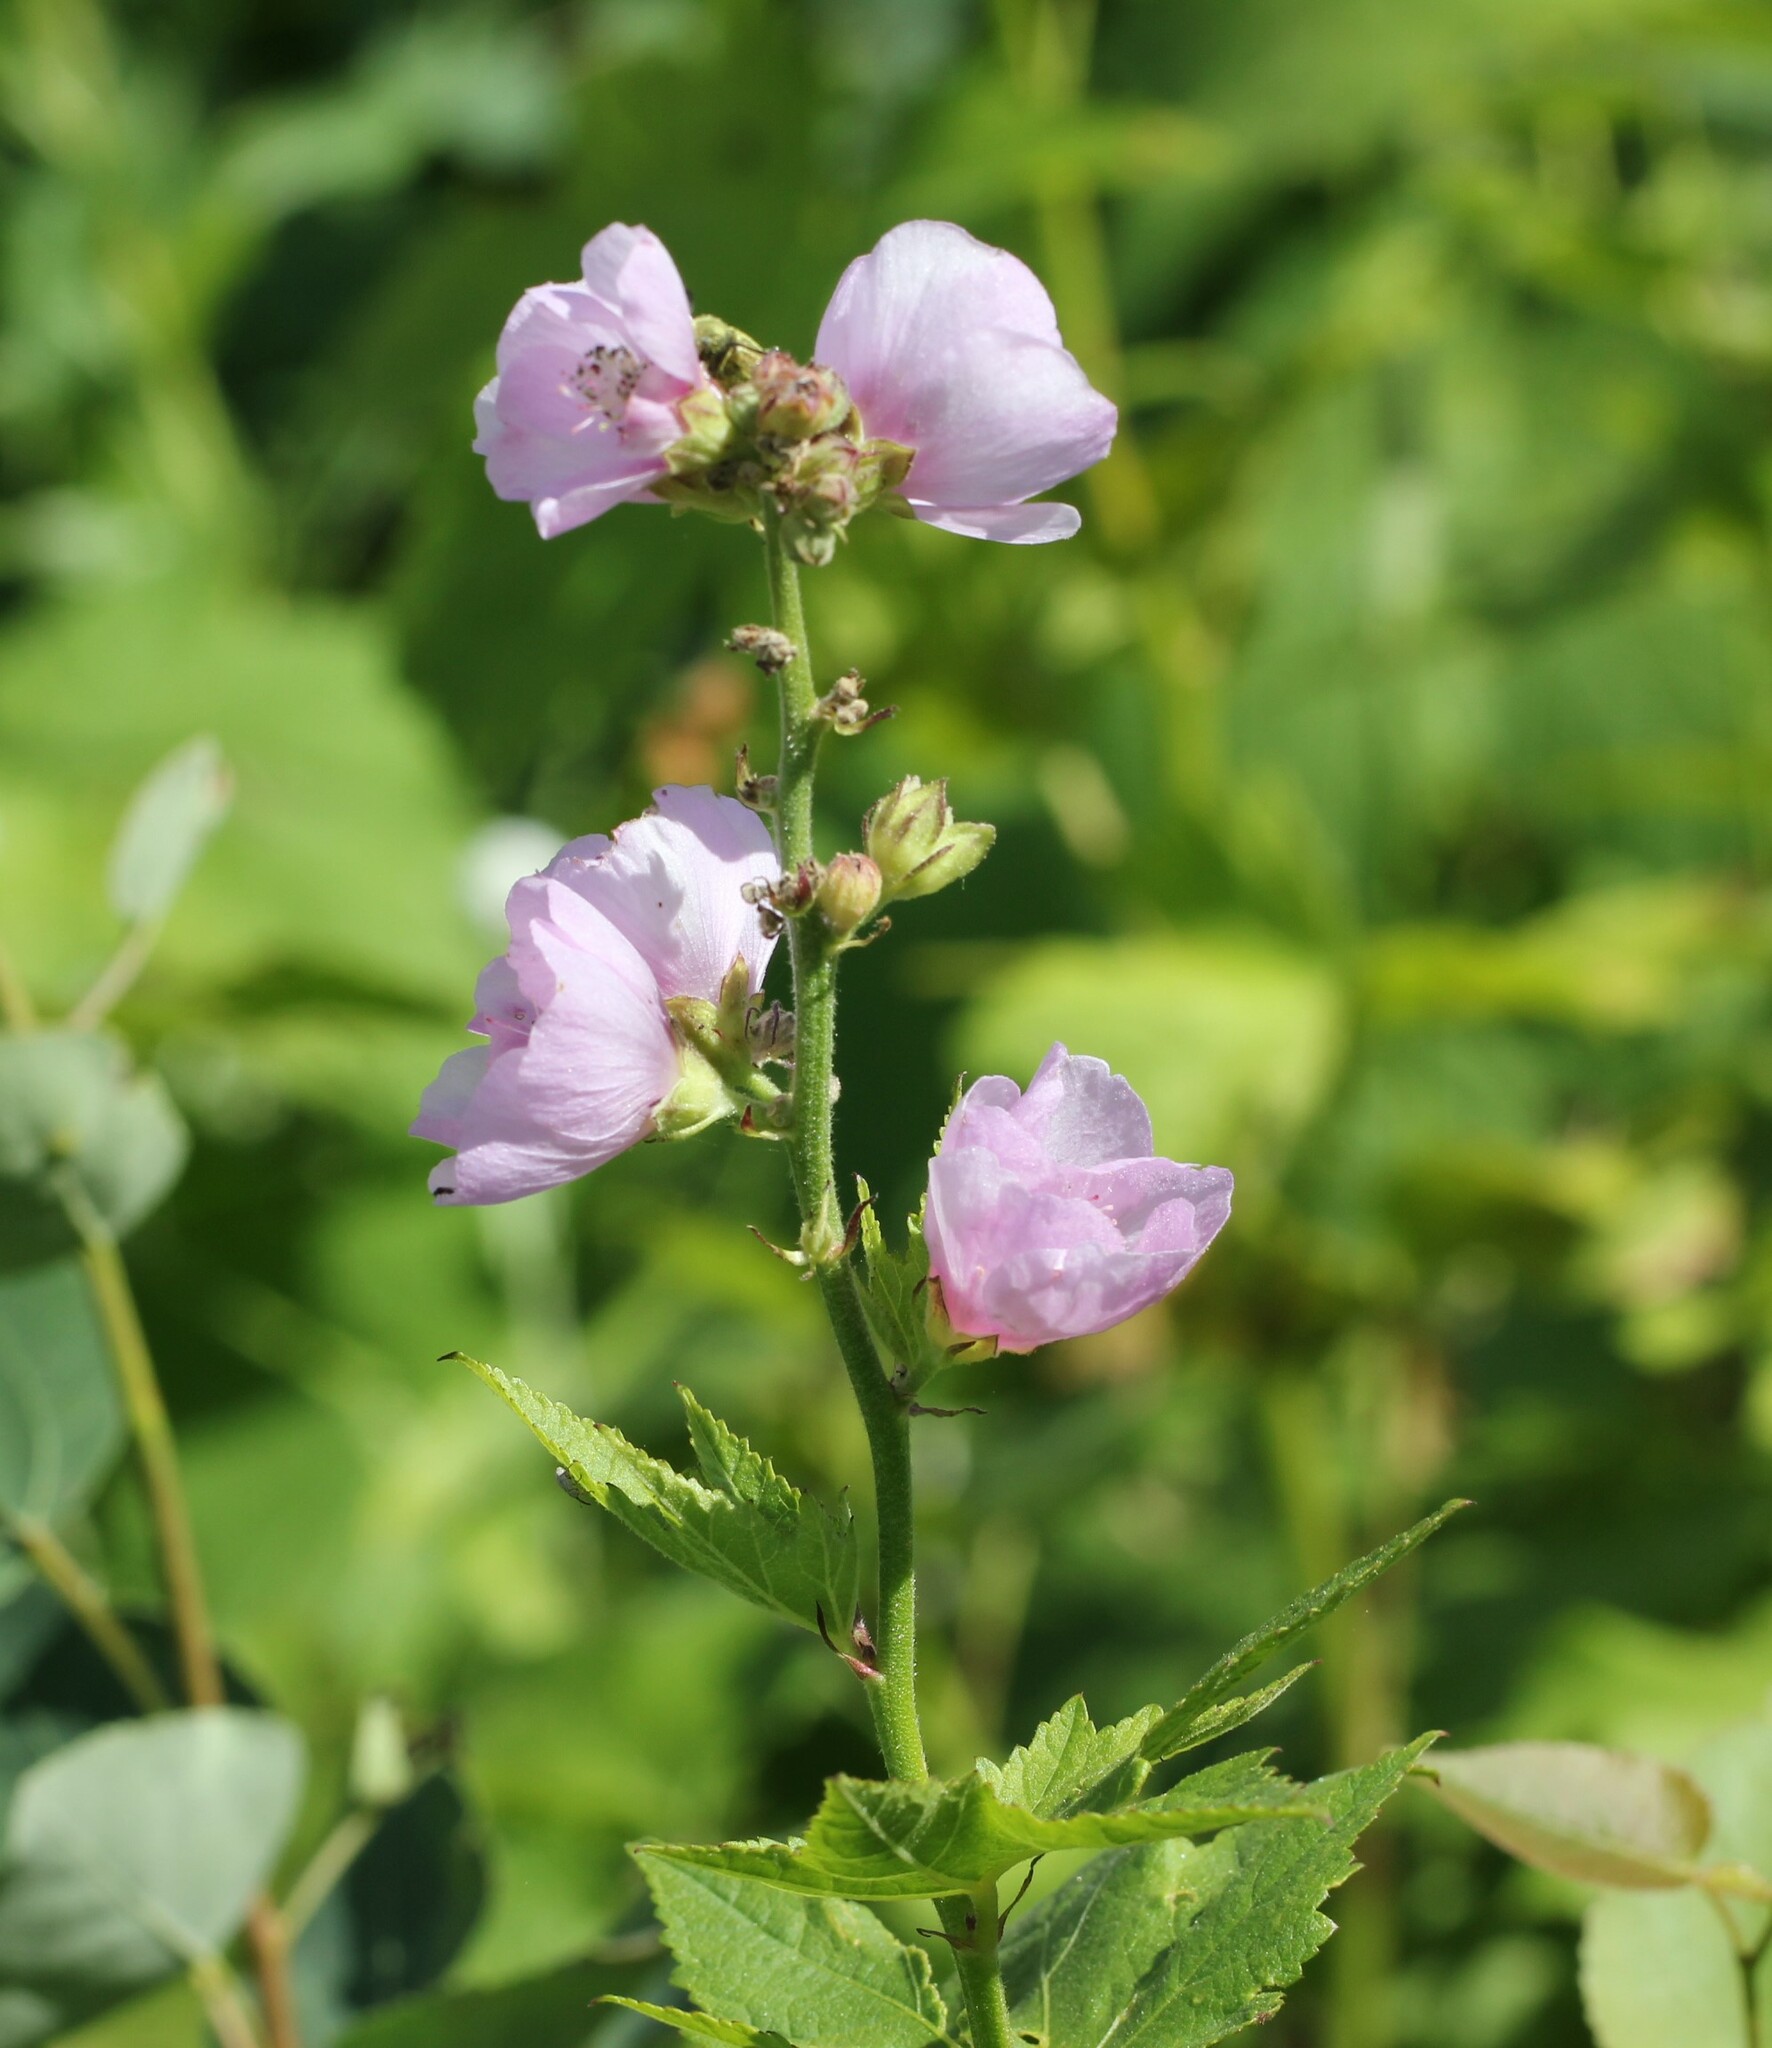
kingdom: Plantae
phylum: Tracheophyta
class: Magnoliopsida
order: Malvales
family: Malvaceae
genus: Iliamna
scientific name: Iliamna rivularis
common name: Wild hollyhock
